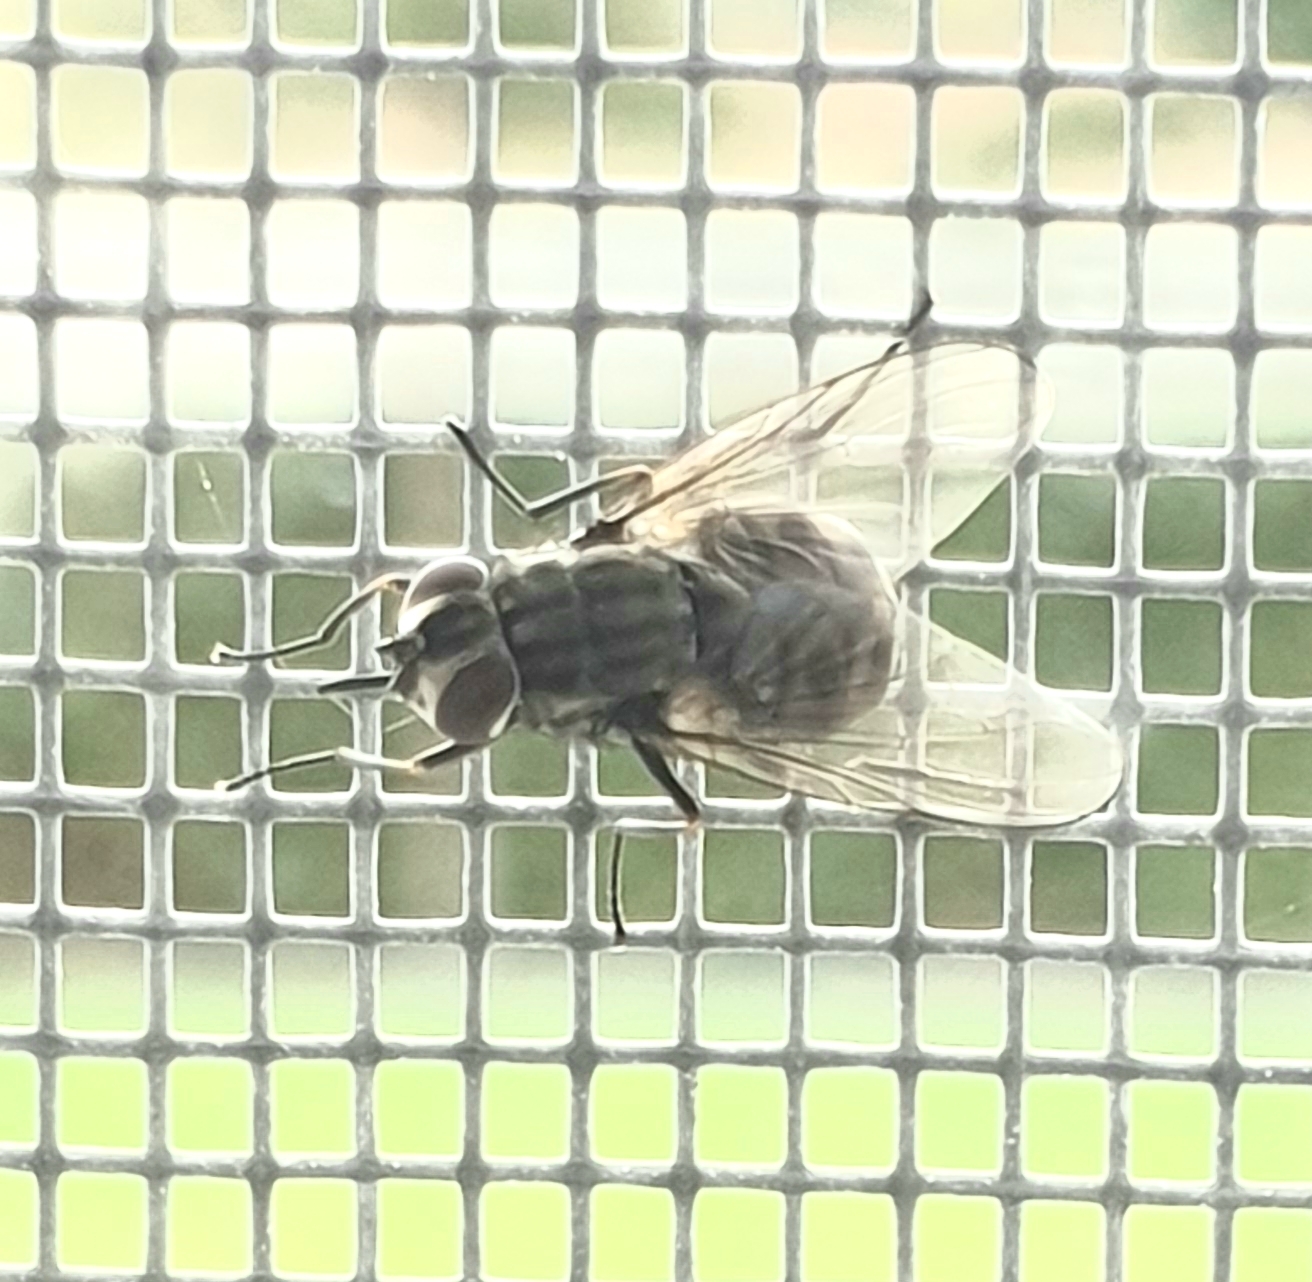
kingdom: Animalia
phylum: Arthropoda
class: Insecta
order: Diptera
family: Muscidae
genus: Stomoxys
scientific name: Stomoxys calcitrans
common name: Stable fly
